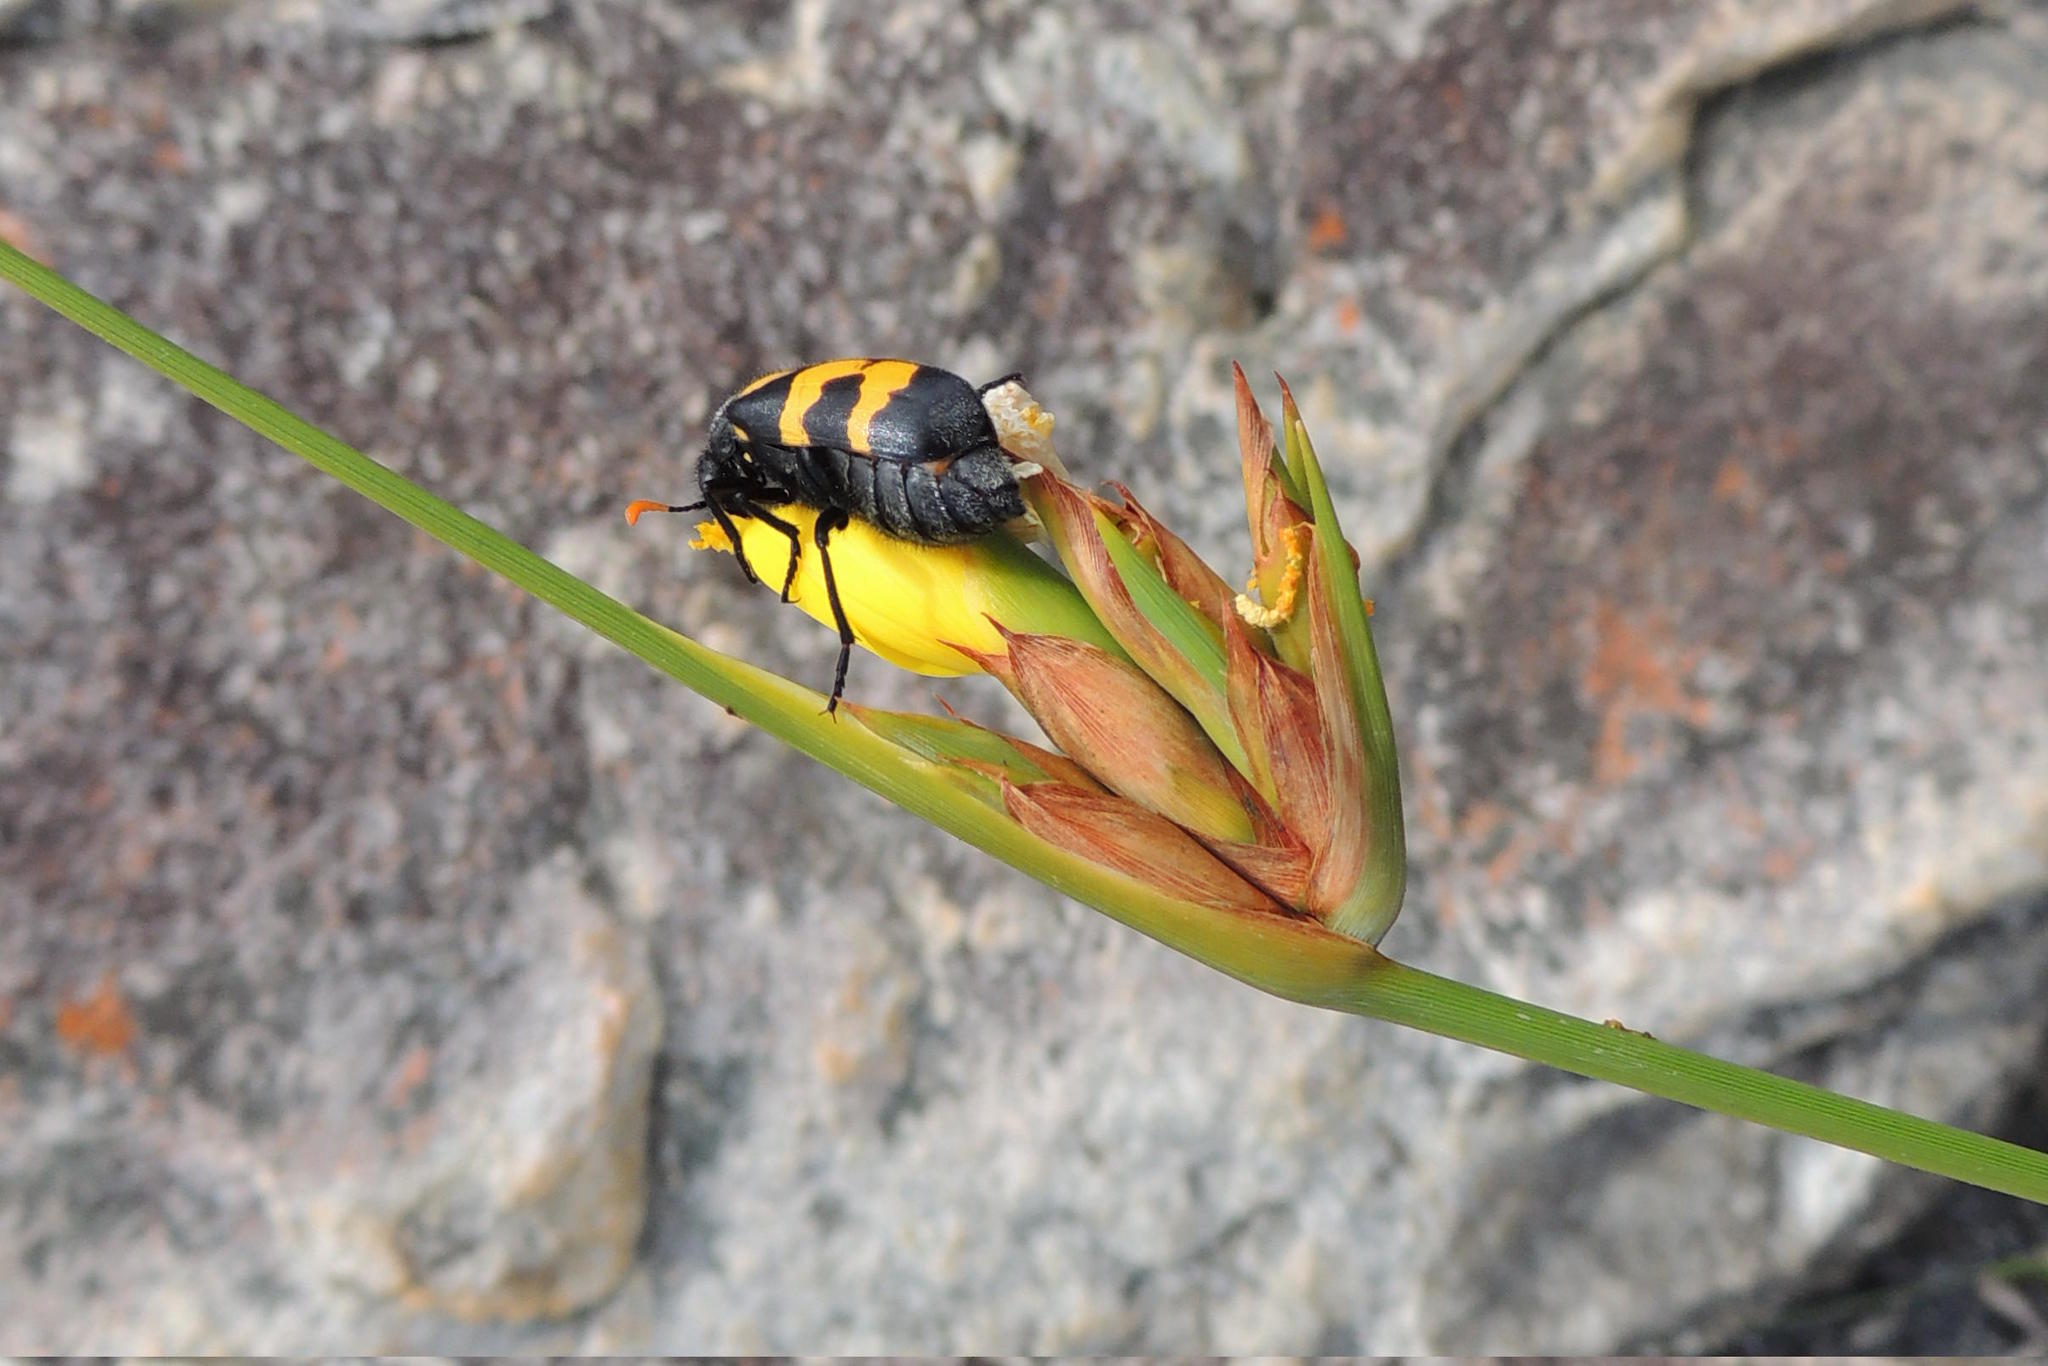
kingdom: Plantae
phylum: Tracheophyta
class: Liliopsida
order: Asparagales
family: Iridaceae
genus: Bobartia
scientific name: Bobartia parva
